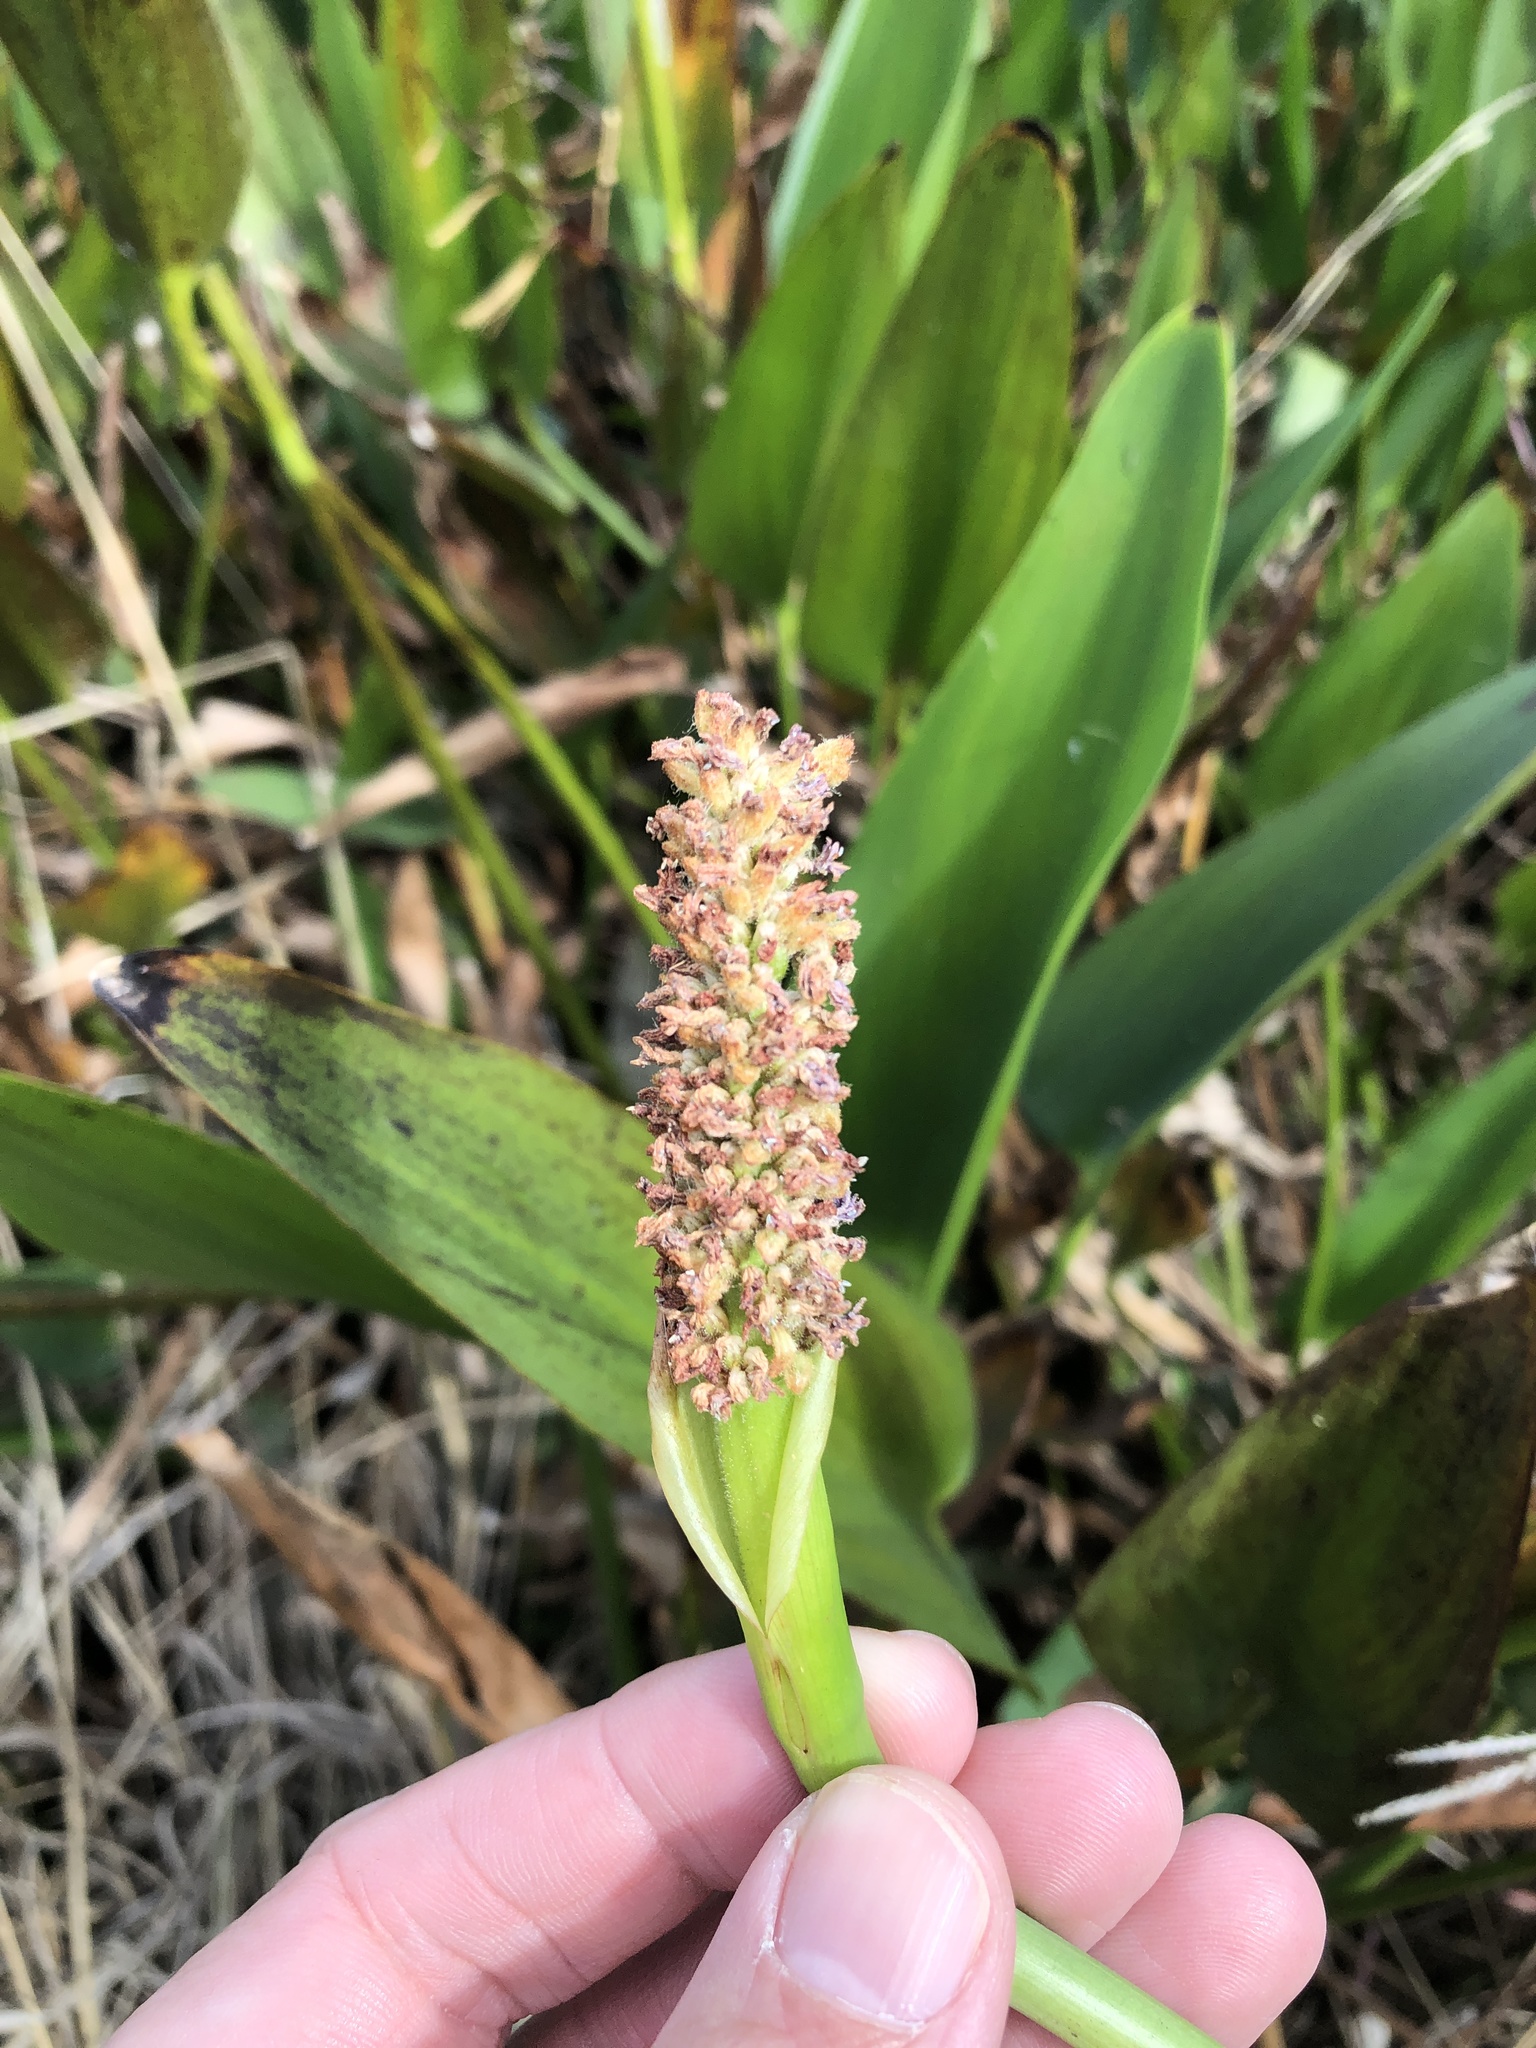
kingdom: Plantae
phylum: Tracheophyta
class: Liliopsida
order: Commelinales
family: Pontederiaceae
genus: Pontederia
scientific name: Pontederia cordata
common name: Pickerelweed
